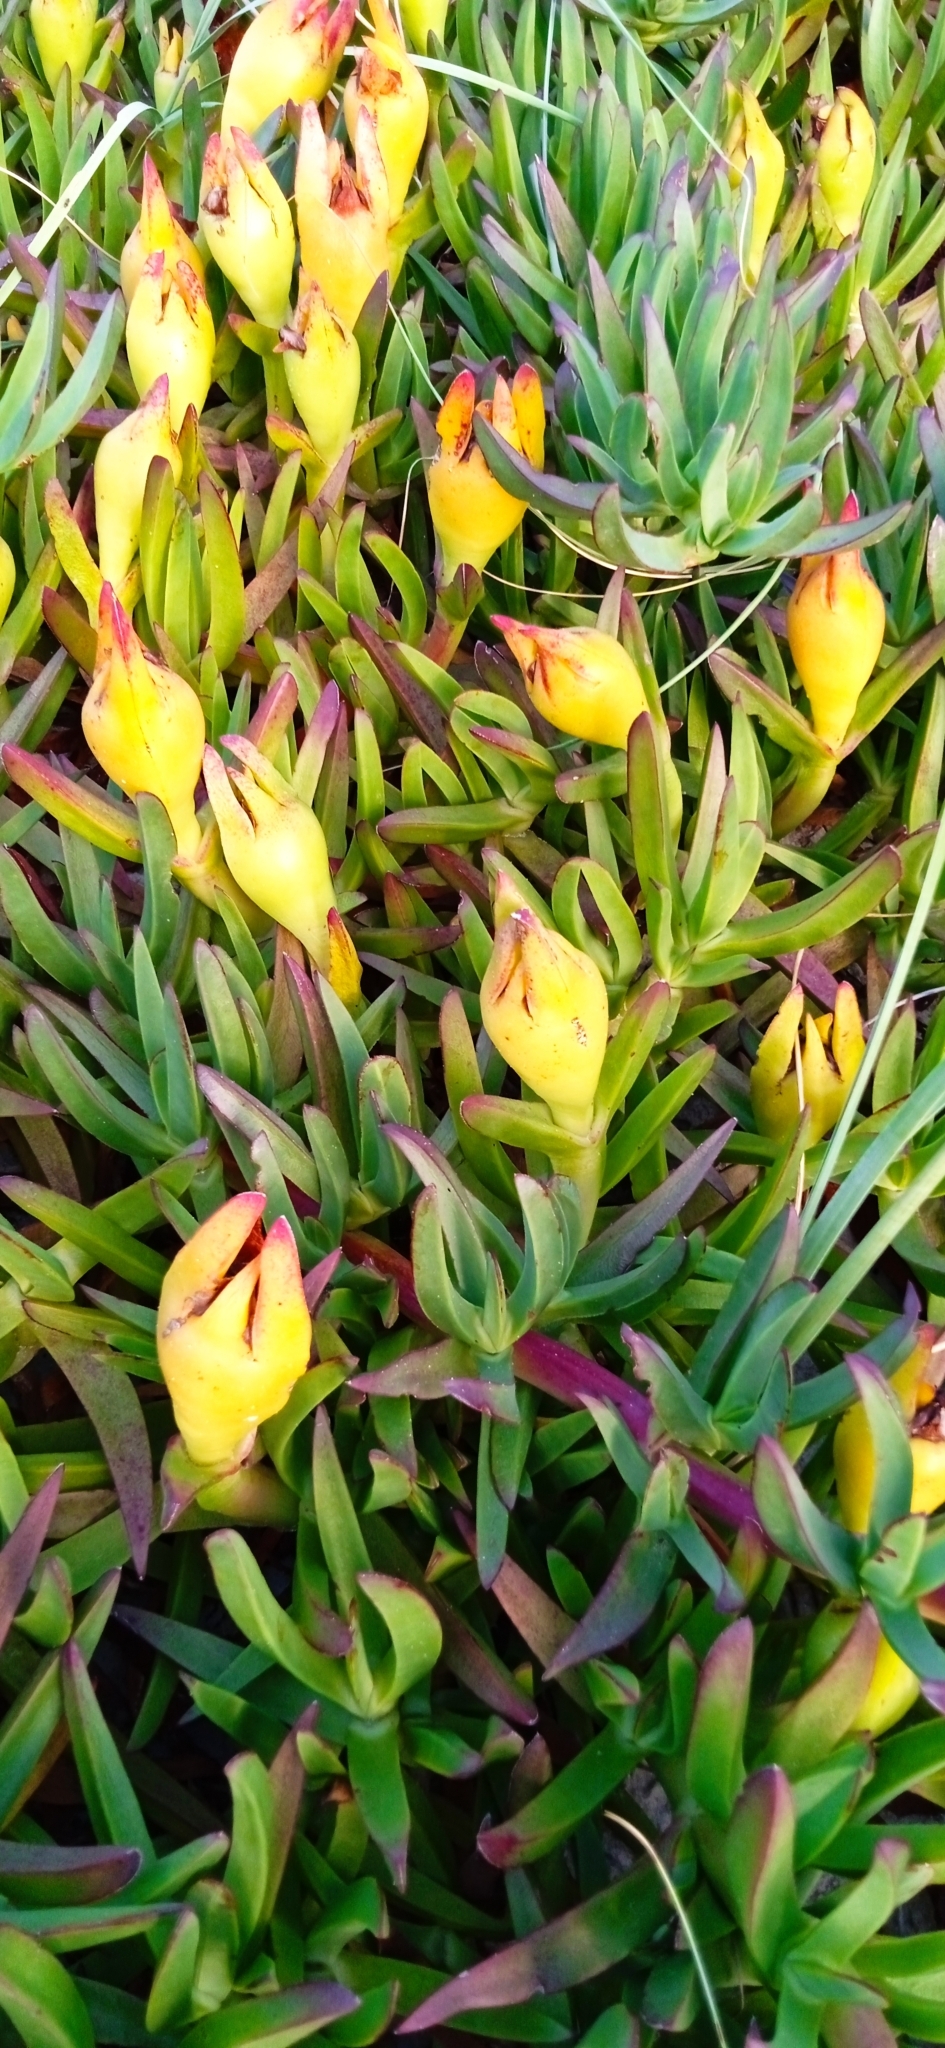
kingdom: Plantae
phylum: Tracheophyta
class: Magnoliopsida
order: Caryophyllales
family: Aizoaceae
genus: Carpobrotus
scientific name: Carpobrotus edulis
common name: Hottentot-fig
